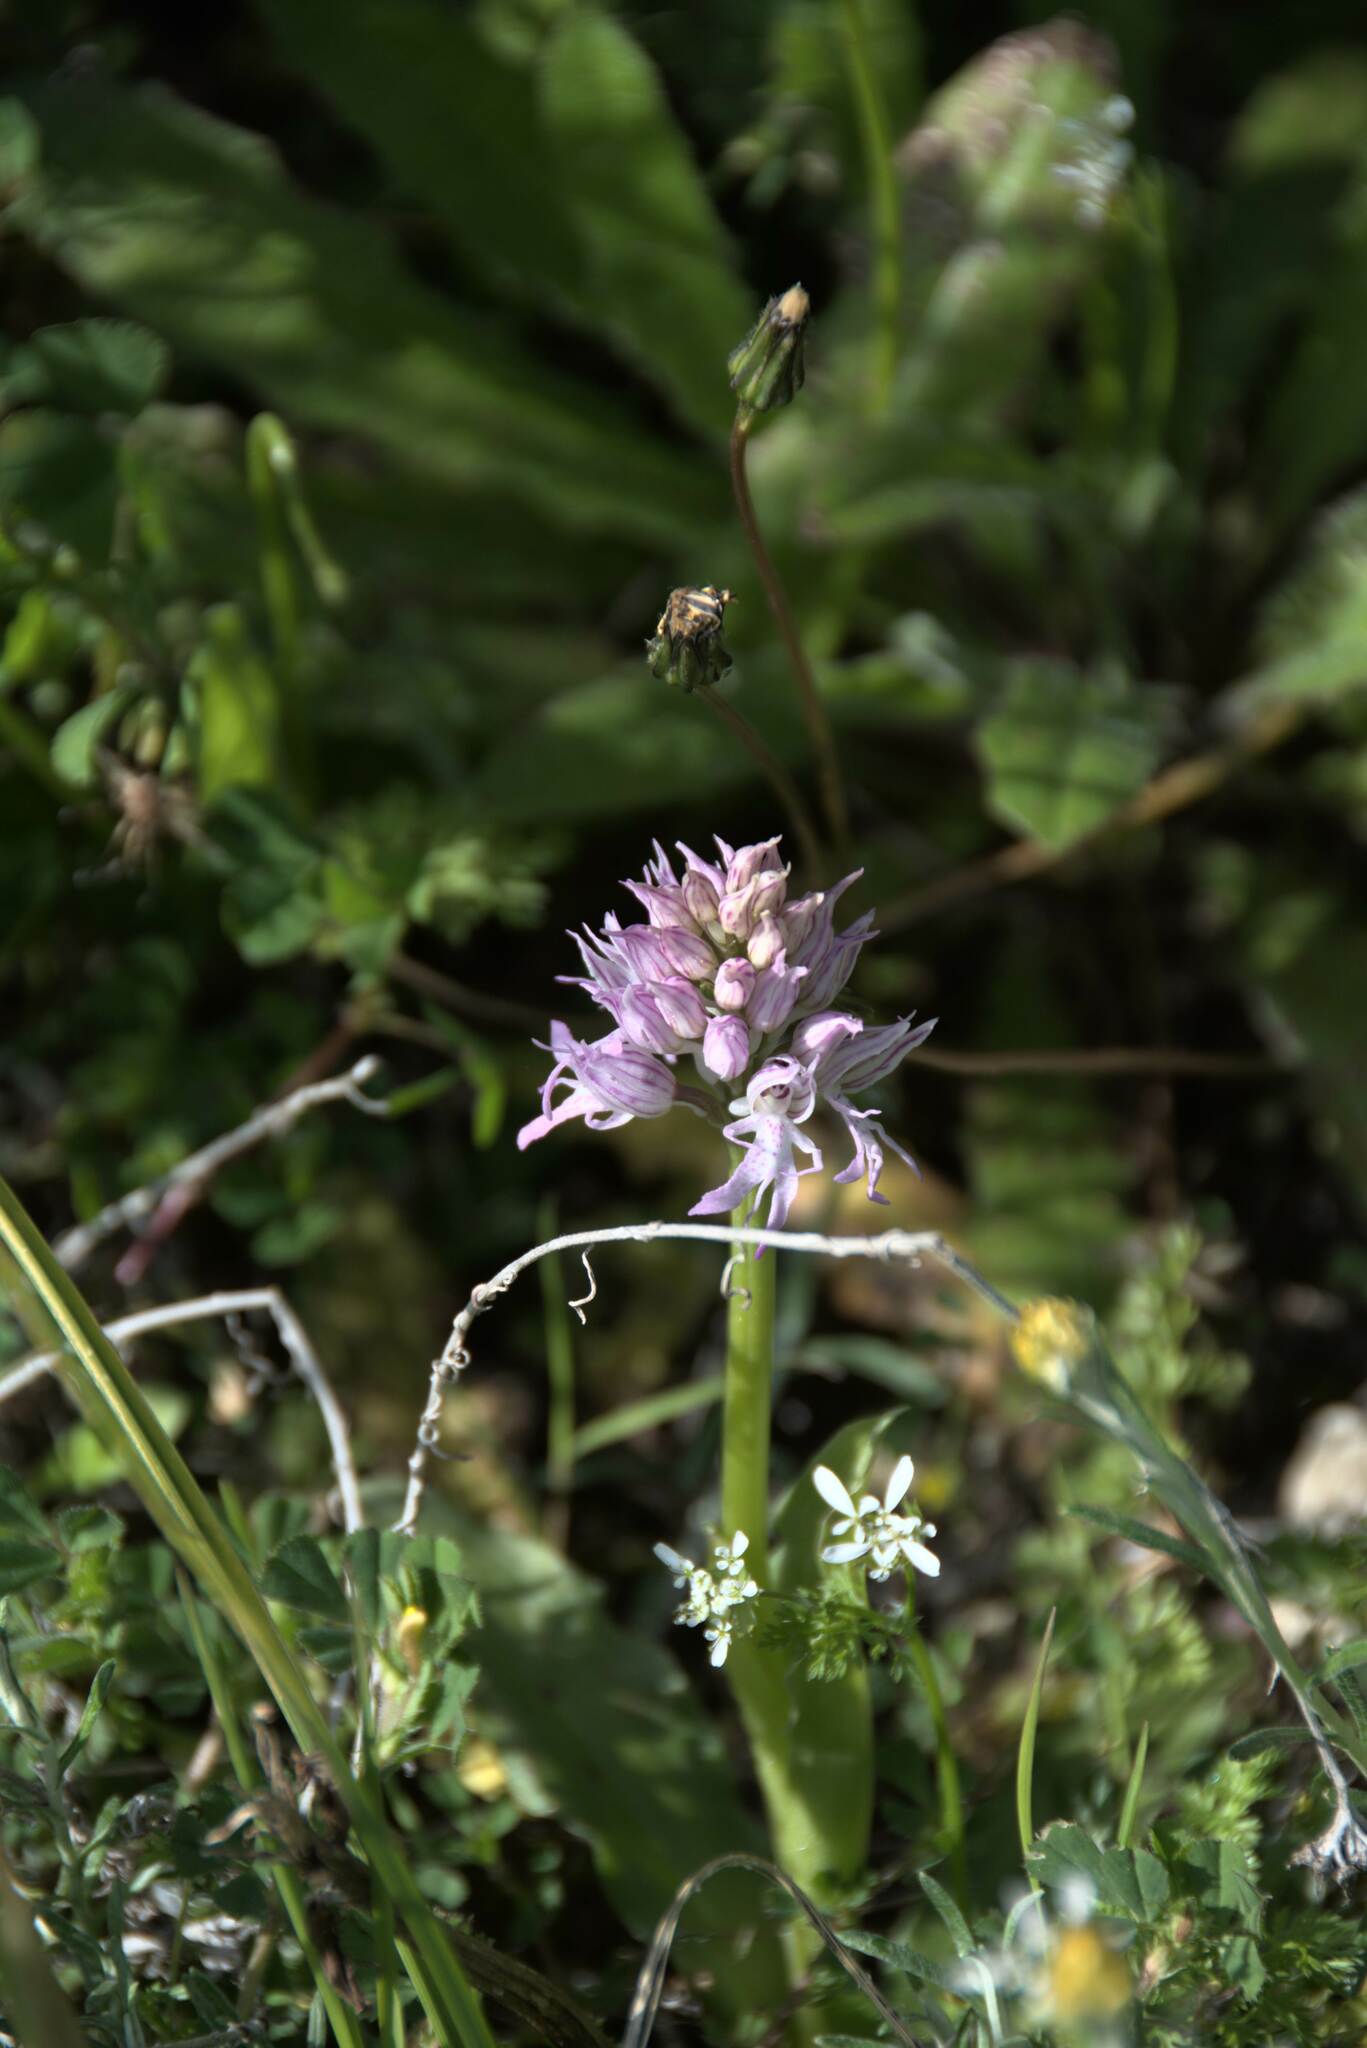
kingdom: Plantae
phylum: Tracheophyta
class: Liliopsida
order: Asparagales
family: Orchidaceae
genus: Orchis
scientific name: Orchis italica
